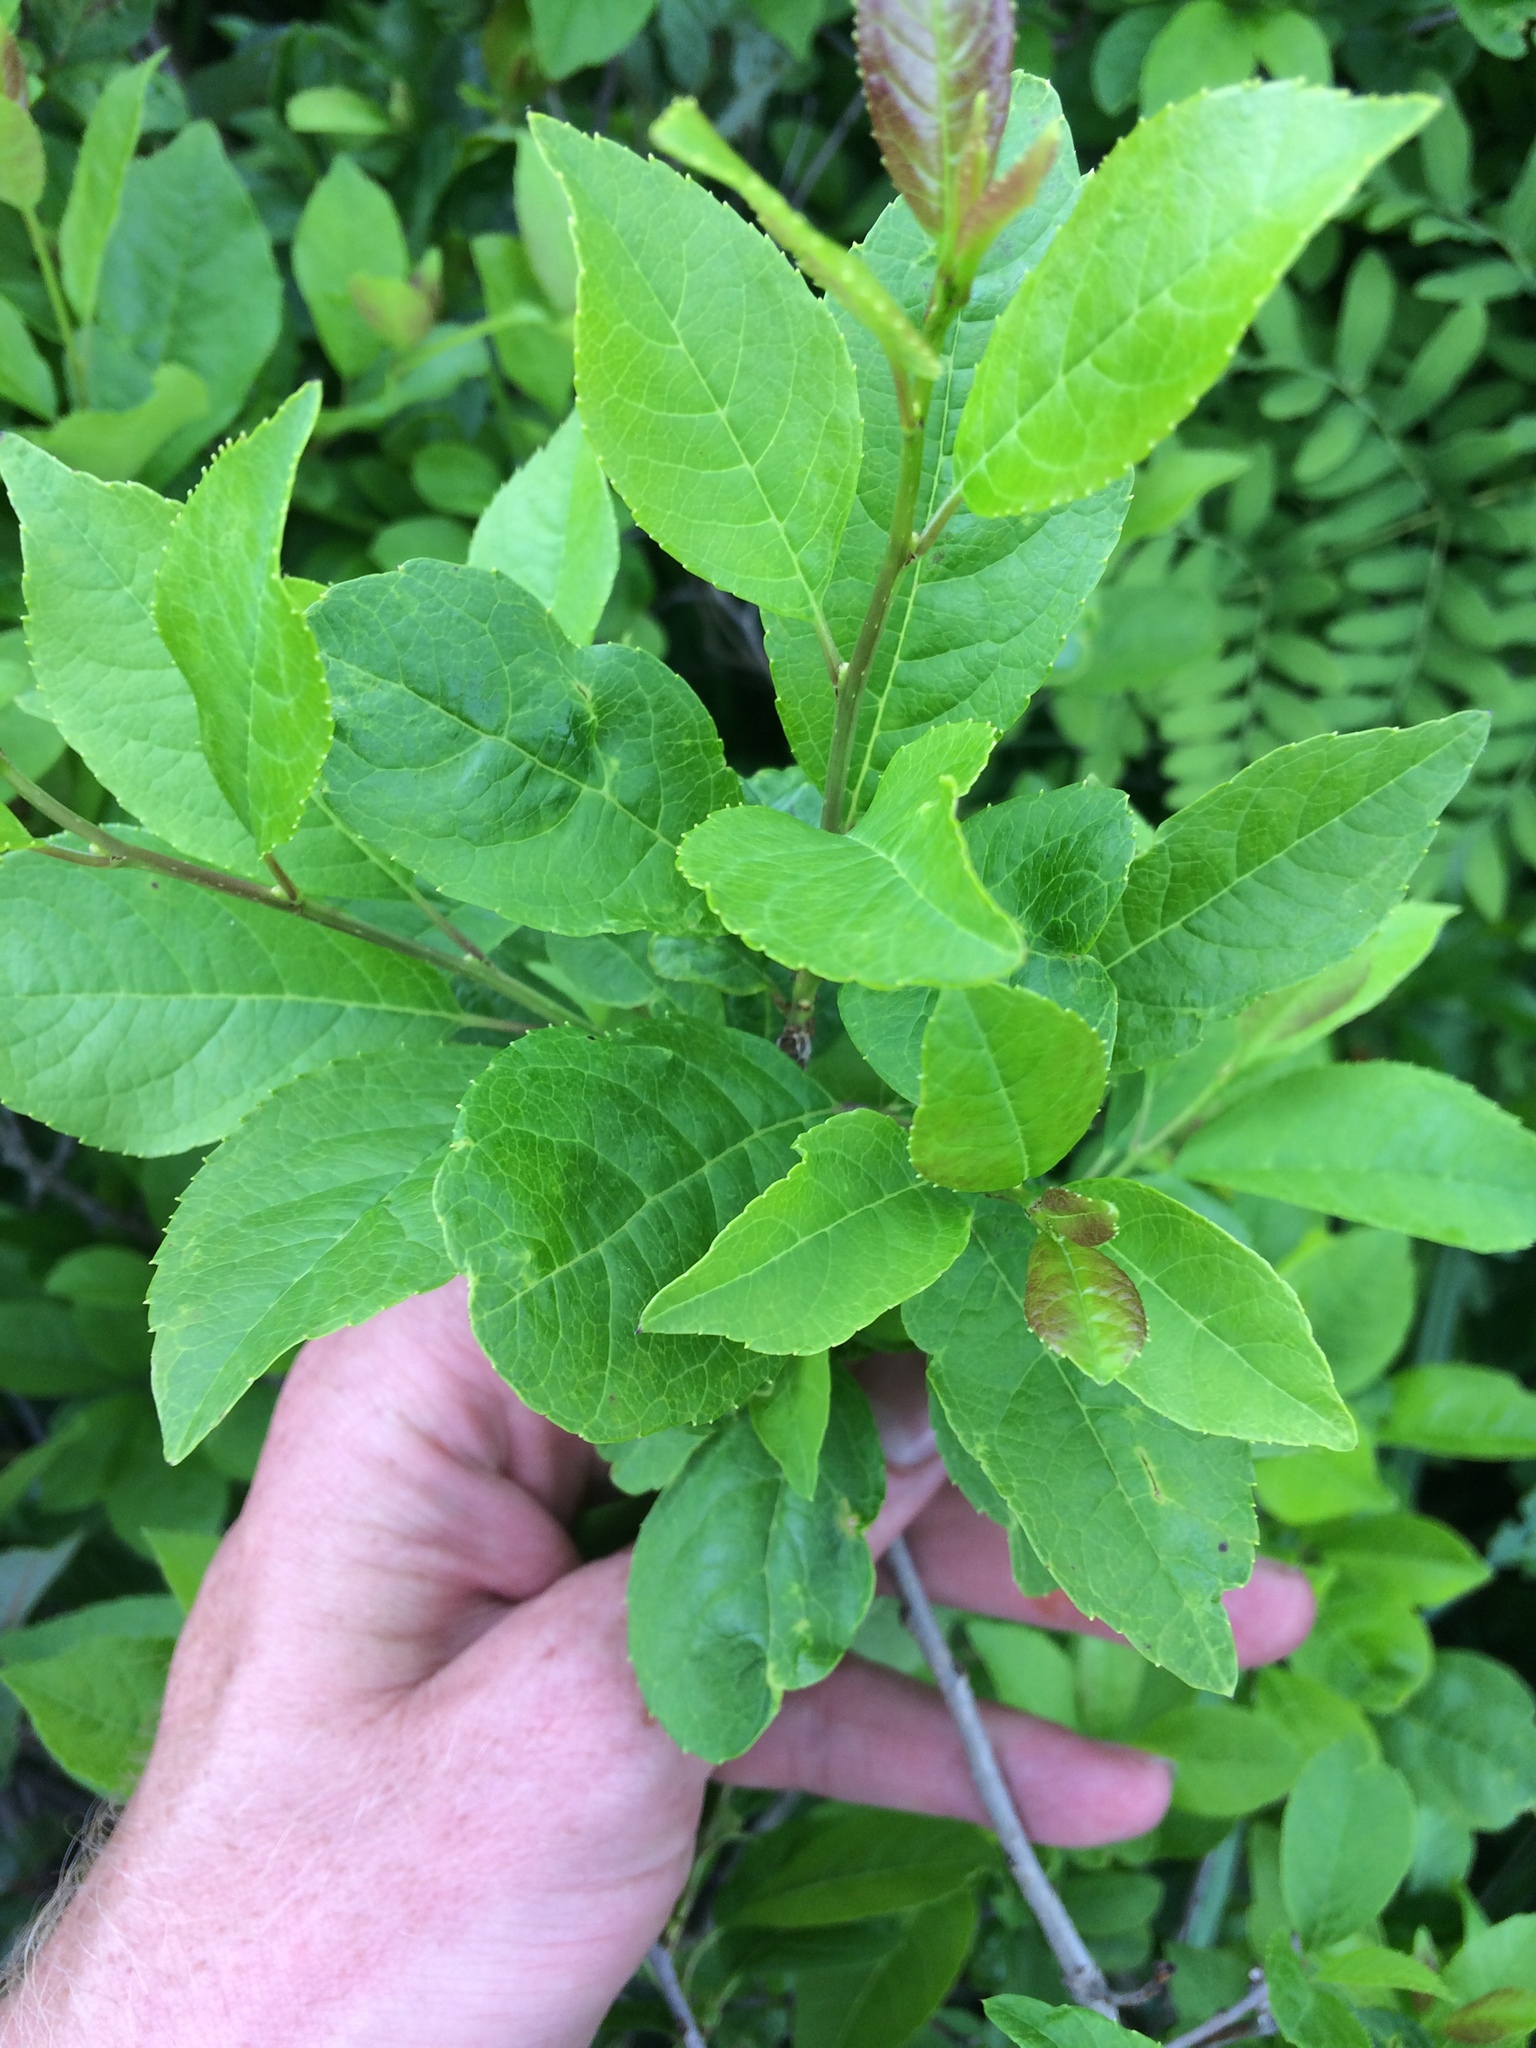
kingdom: Plantae
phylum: Tracheophyta
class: Magnoliopsida
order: Aquifoliales
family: Aquifoliaceae
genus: Ilex
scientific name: Ilex verticillata
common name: Virginia winterberry
